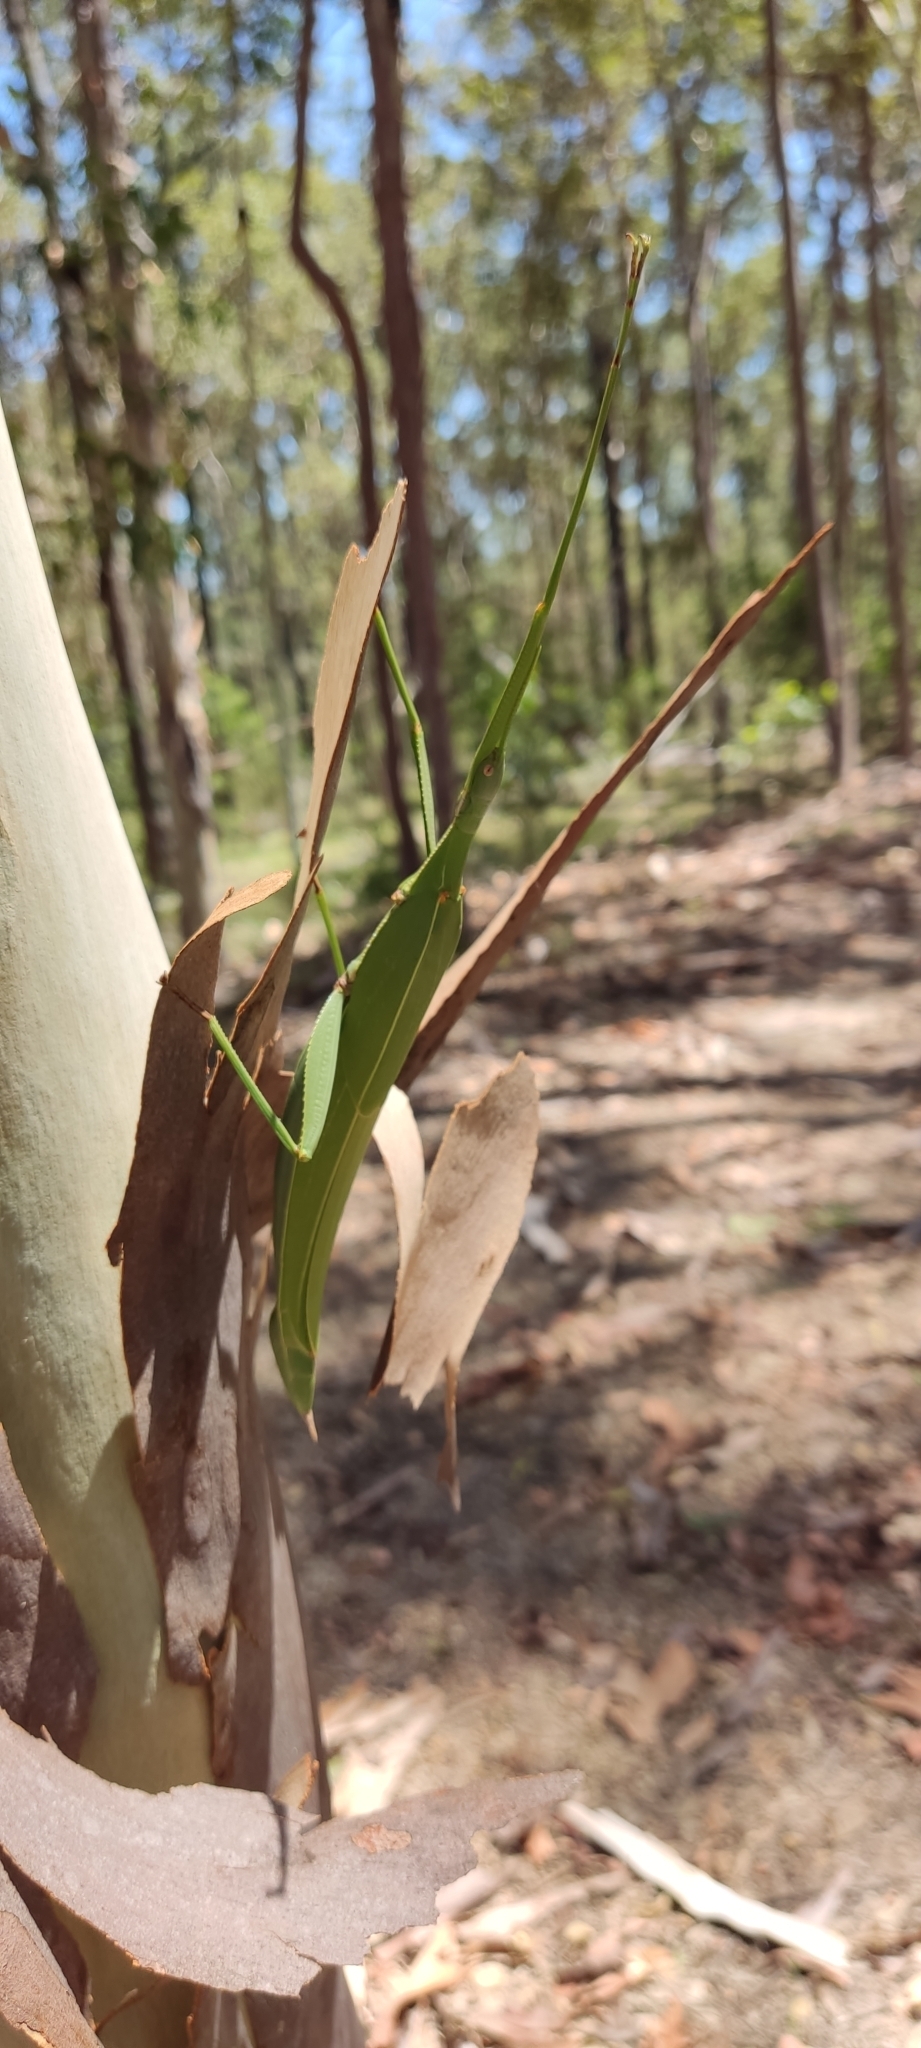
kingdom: Animalia
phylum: Arthropoda
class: Insecta
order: Phasmida
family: Phasmatidae
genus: Tropidoderus
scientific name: Tropidoderus childrenii
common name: Children's stick insect
